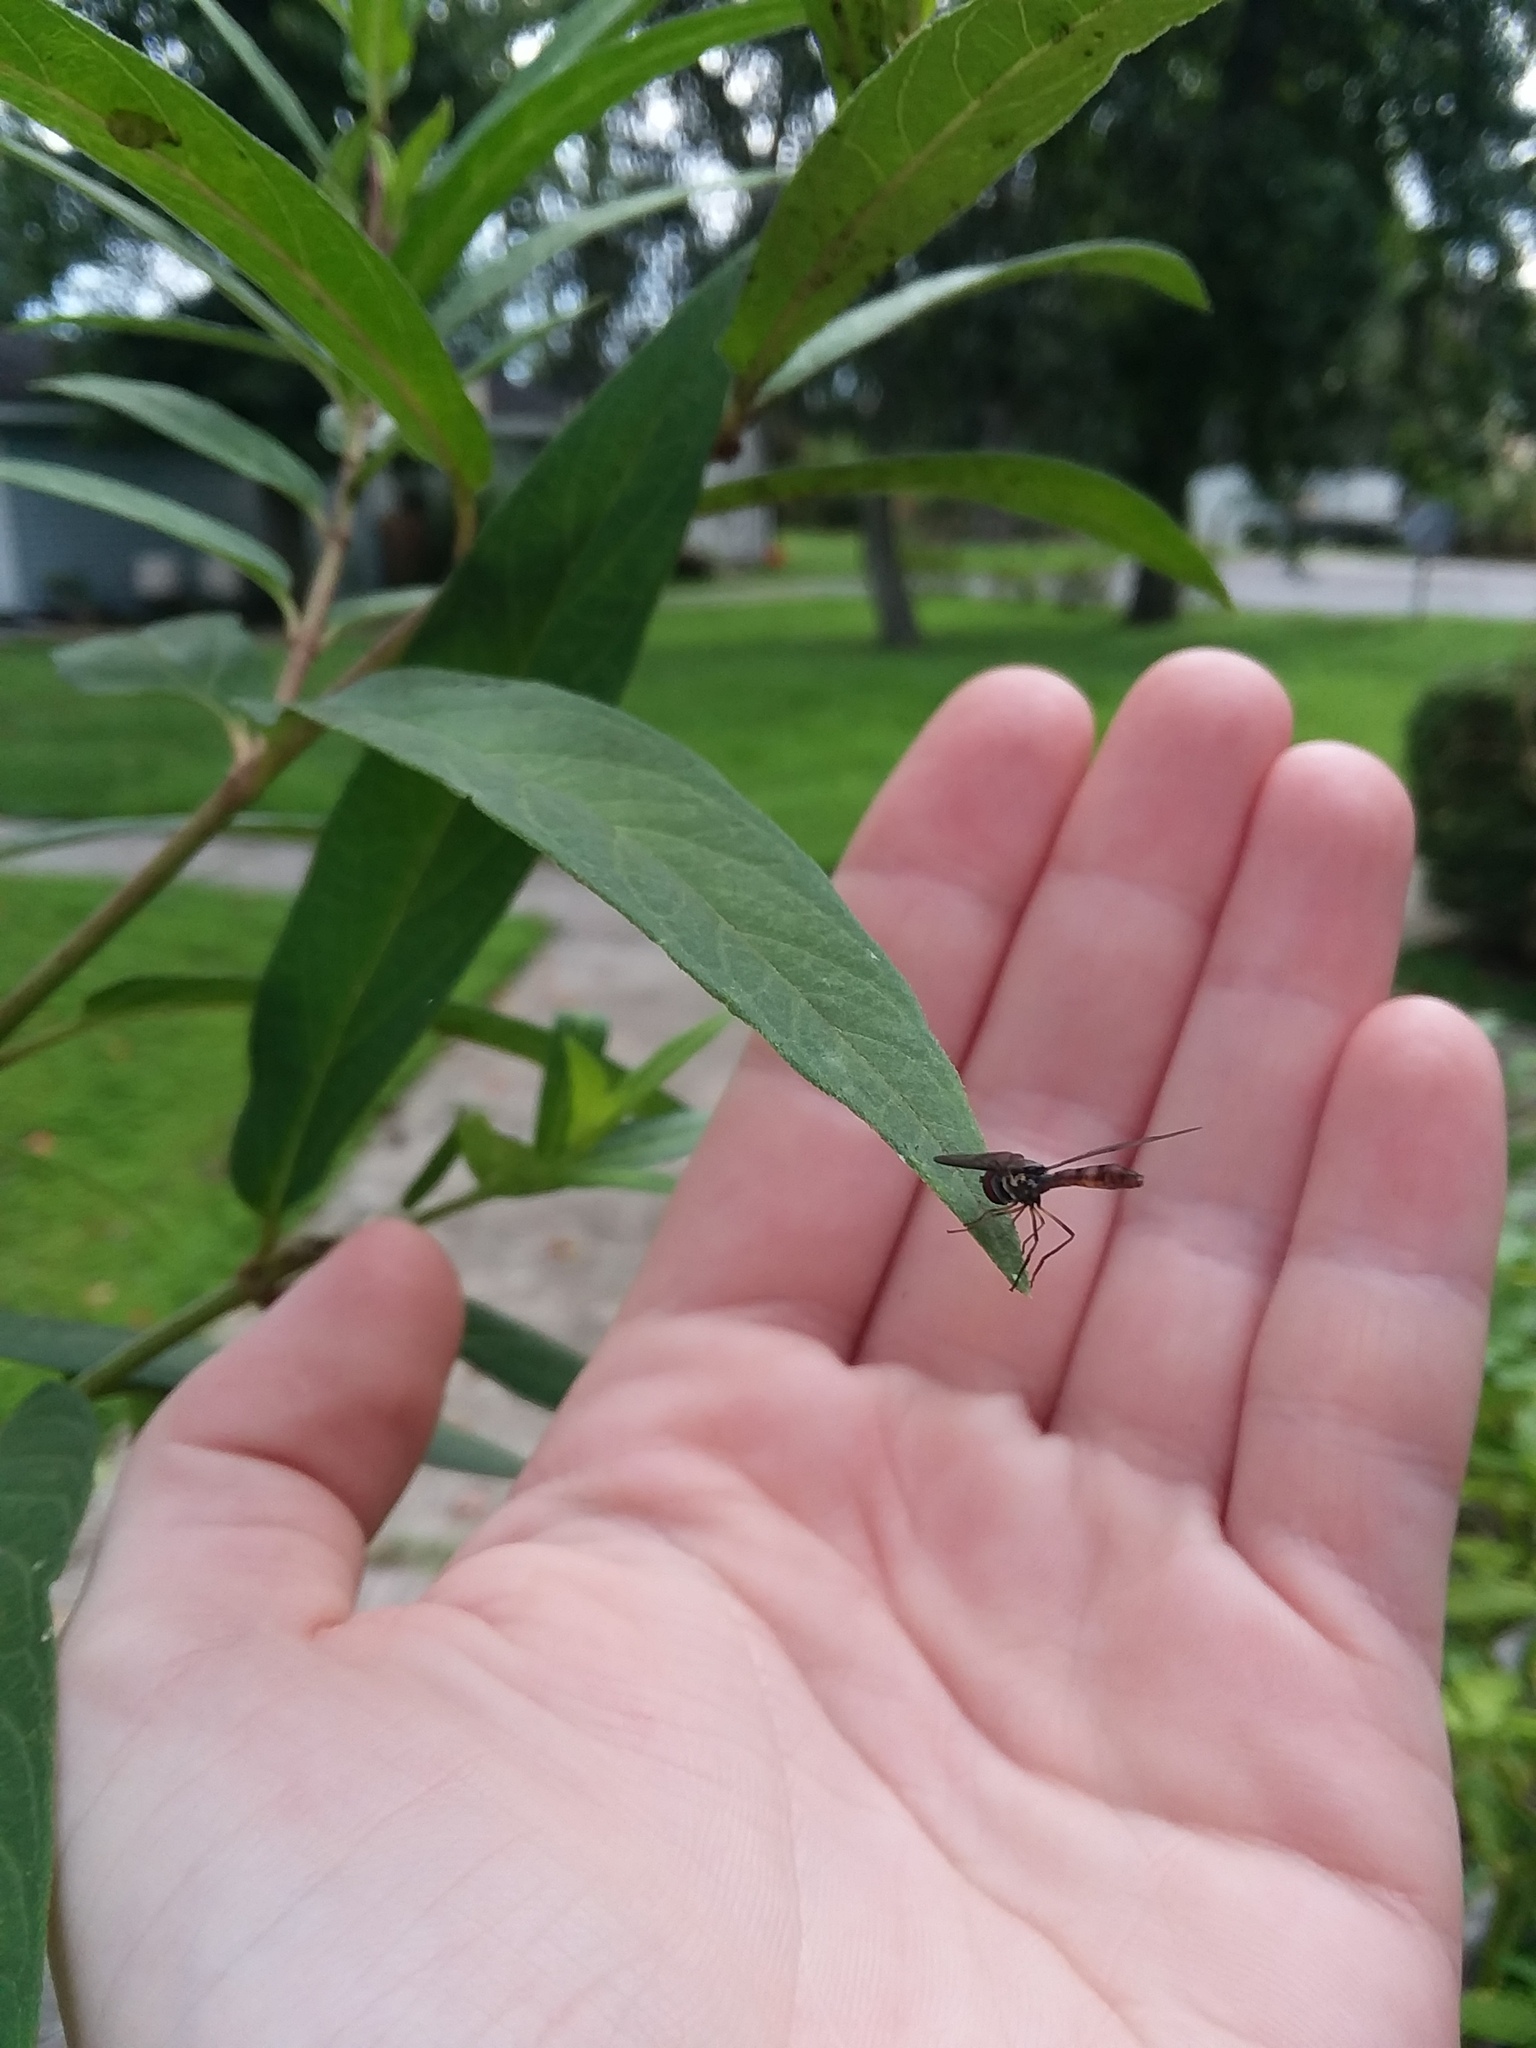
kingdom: Animalia
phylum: Arthropoda
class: Insecta
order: Diptera
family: Syrphidae
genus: Ocyptamus
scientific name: Ocyptamus fuscipennis
